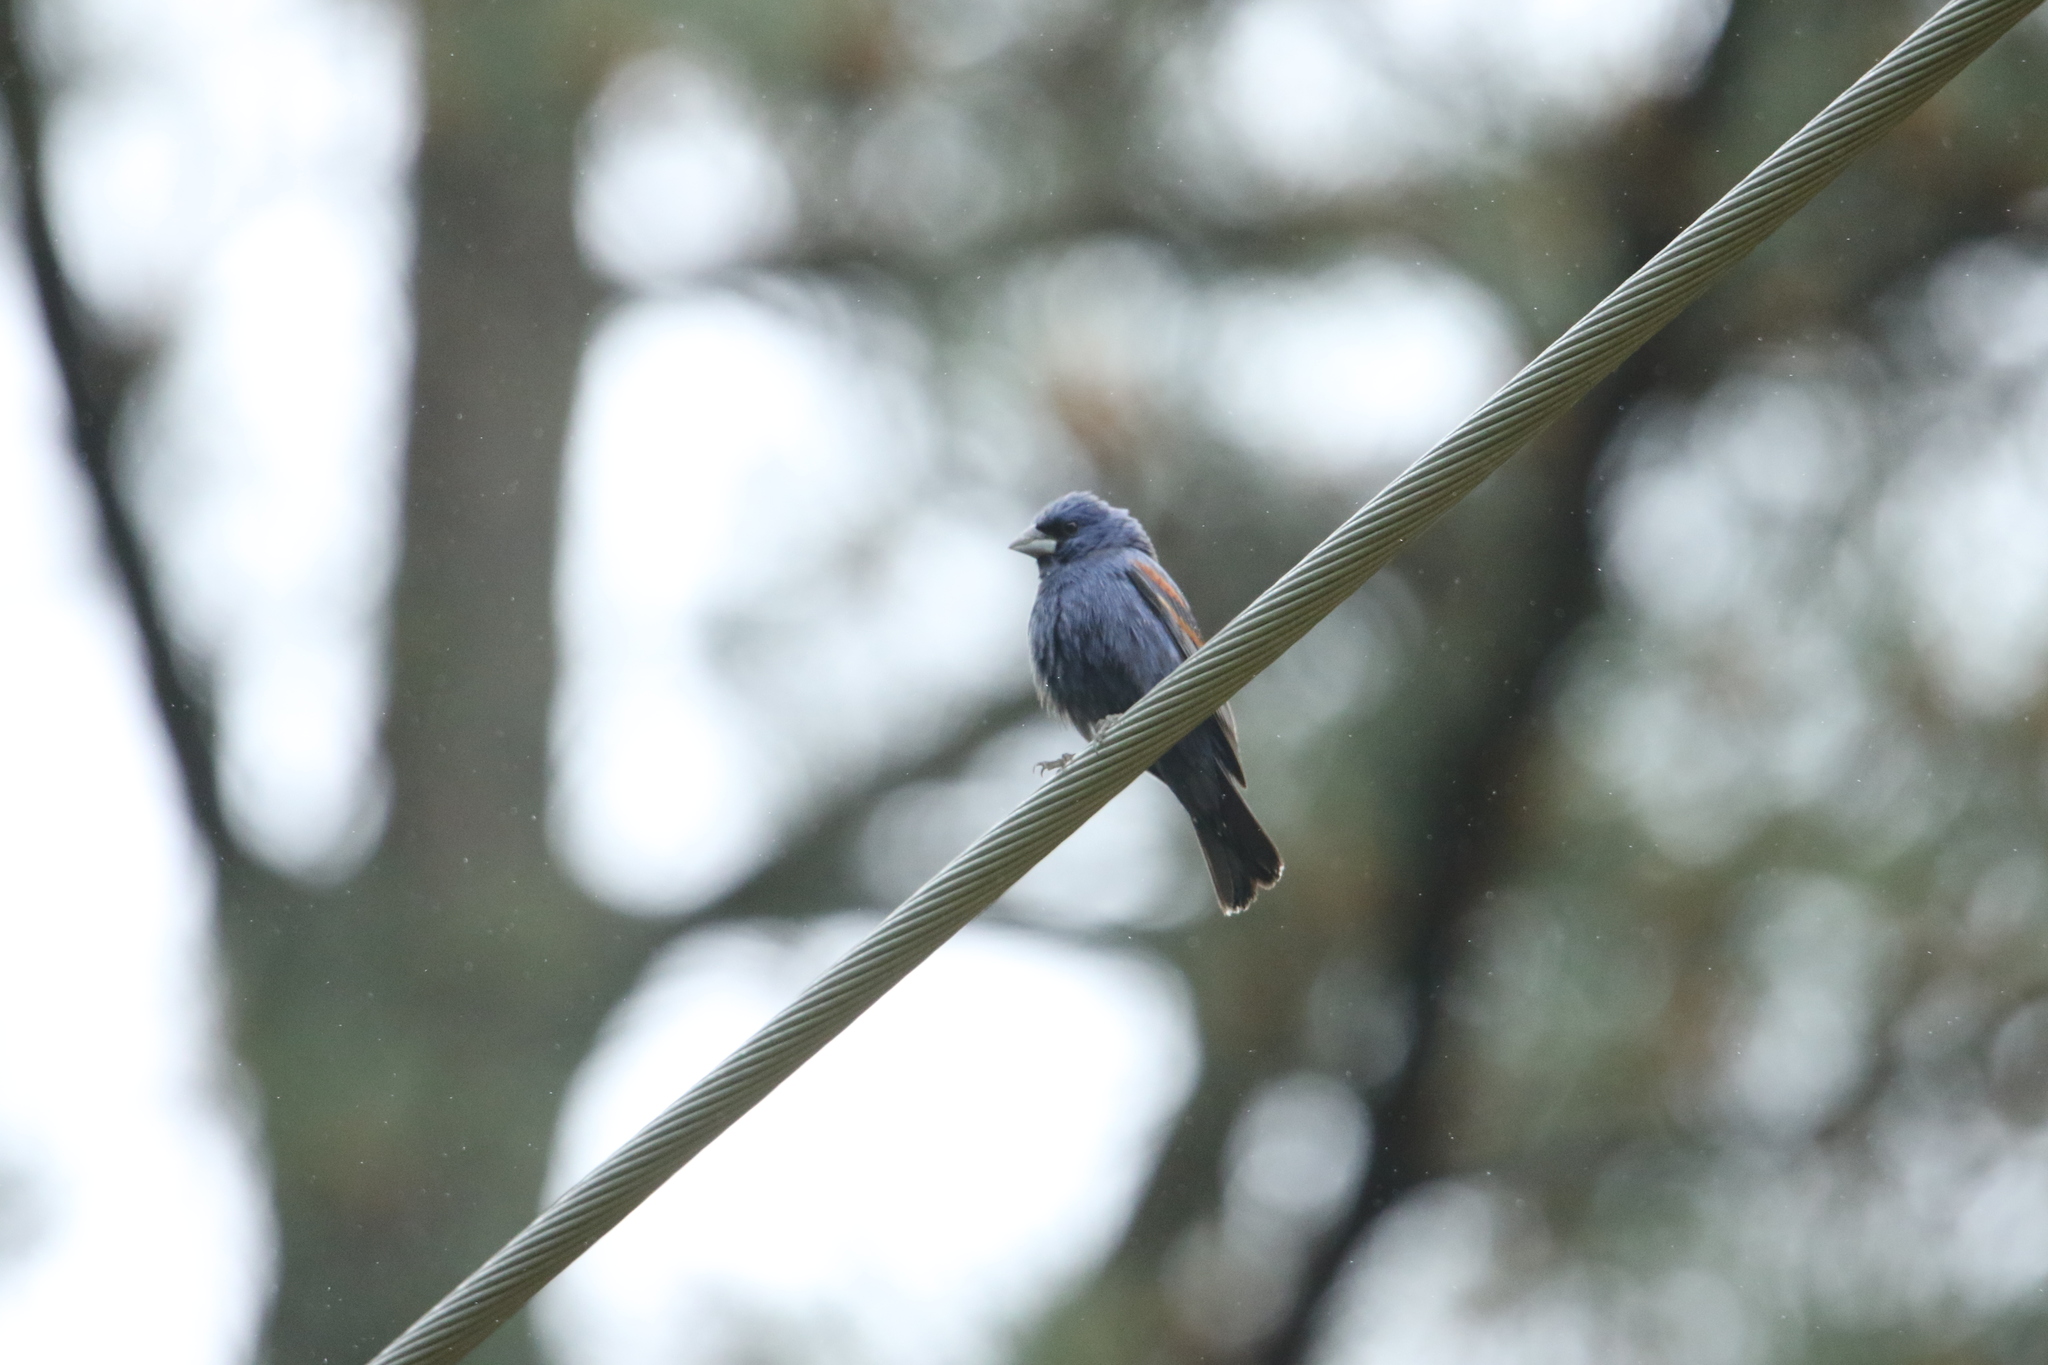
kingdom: Animalia
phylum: Chordata
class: Aves
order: Passeriformes
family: Cardinalidae
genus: Passerina
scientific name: Passerina caerulea
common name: Blue grosbeak
